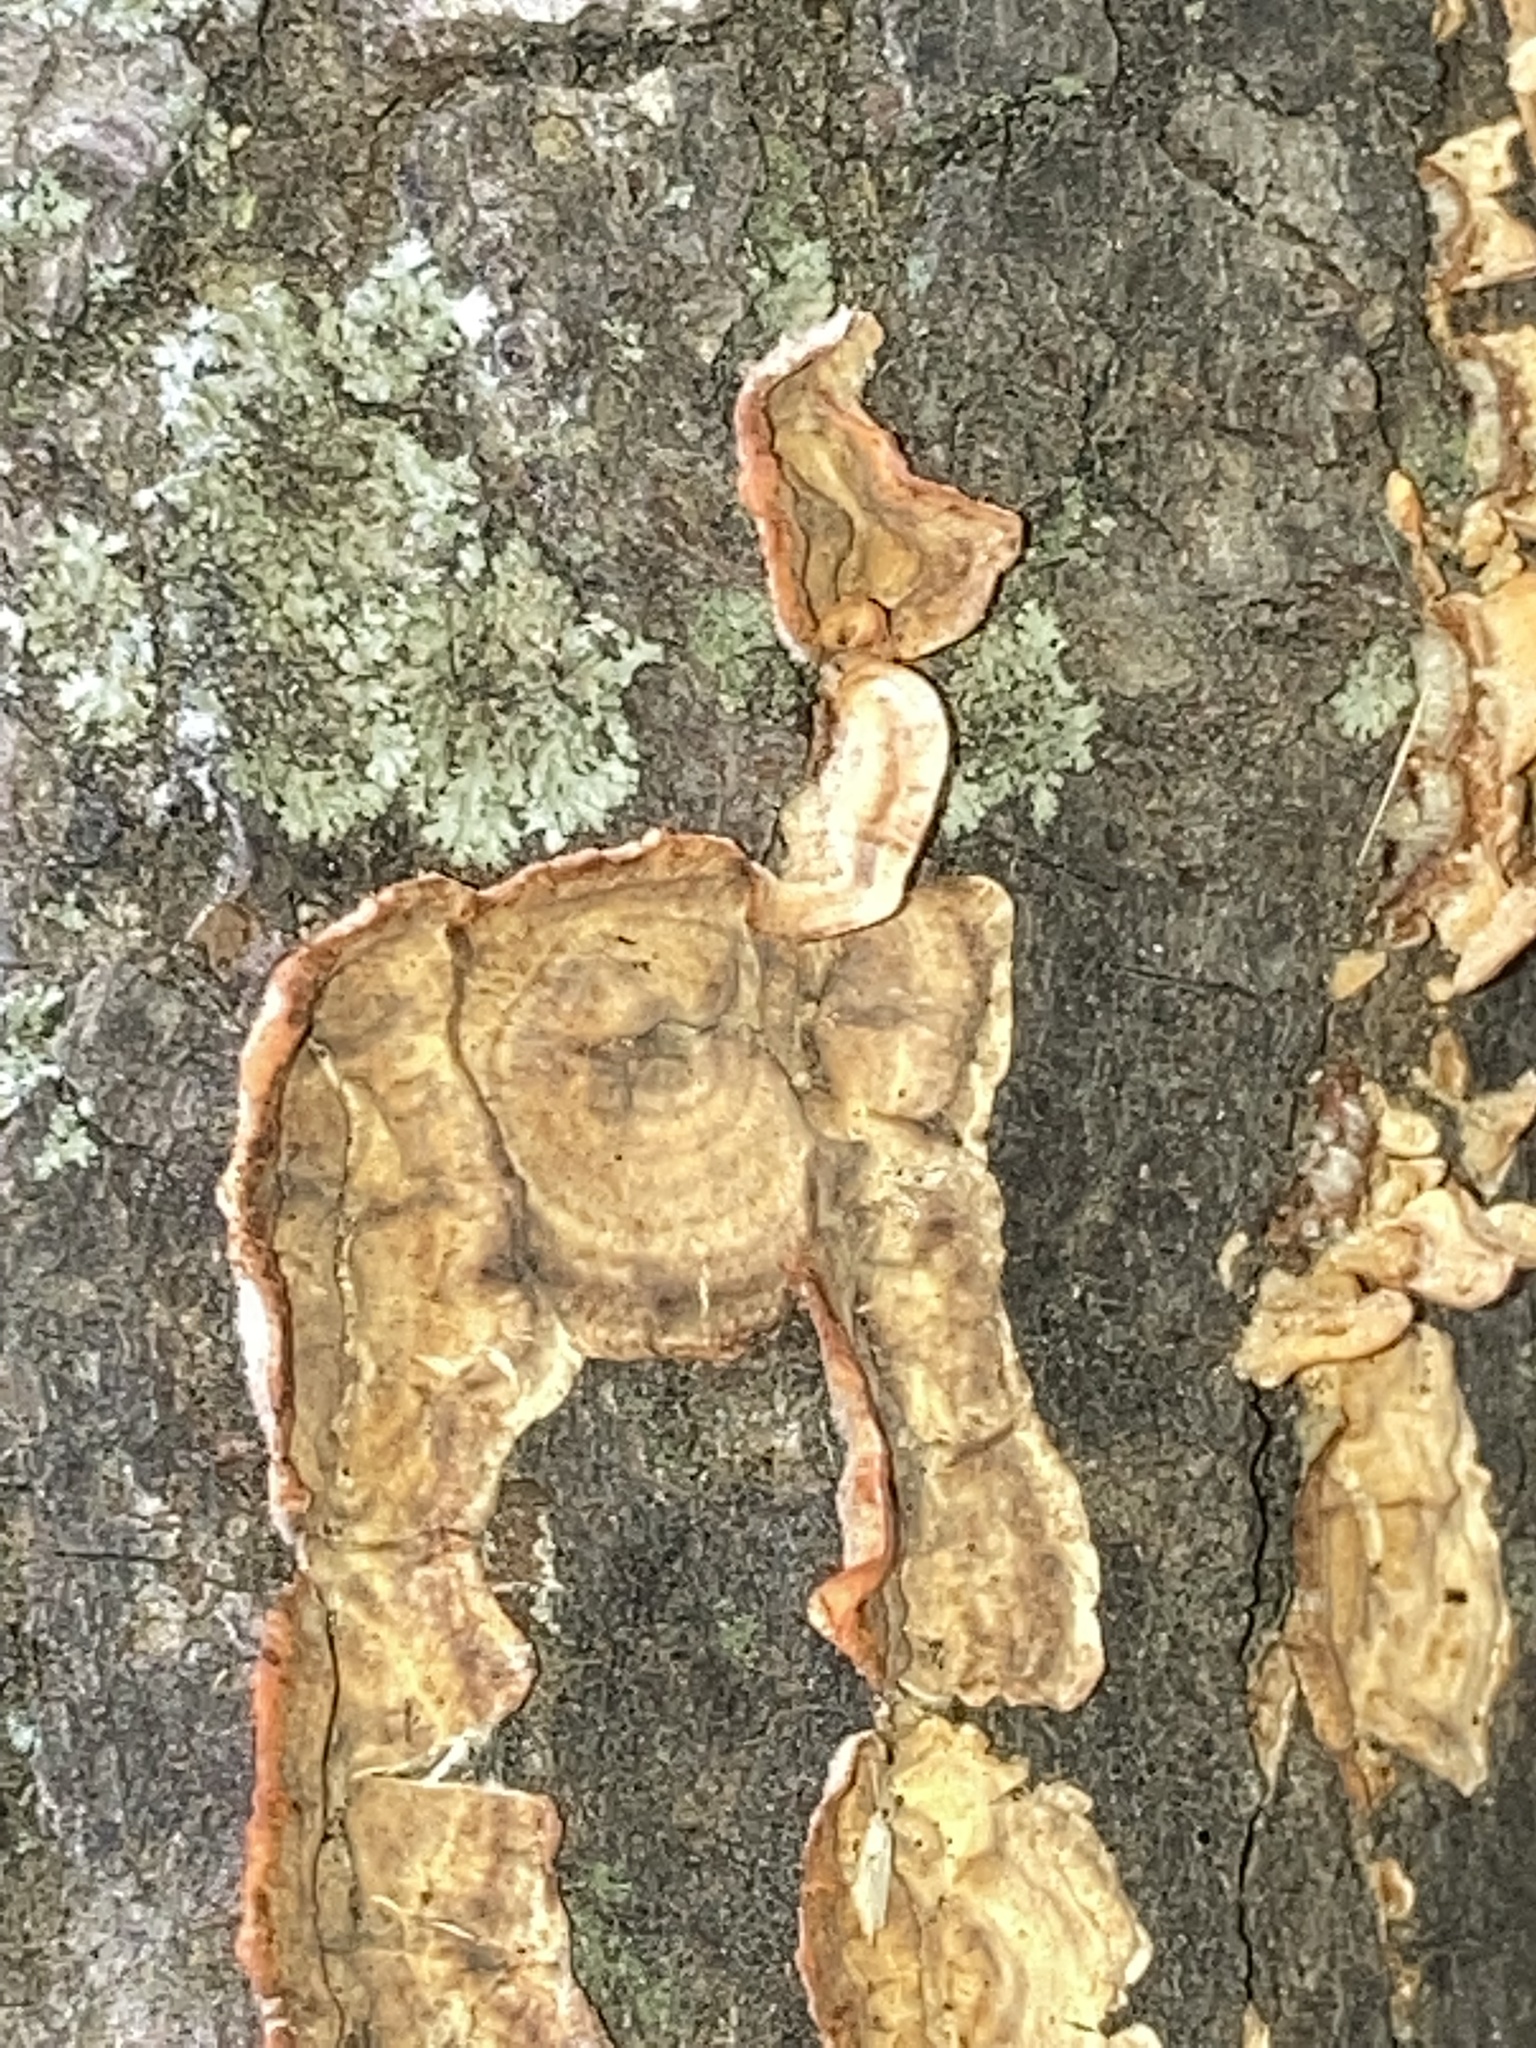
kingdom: Fungi
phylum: Basidiomycota
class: Agaricomycetes
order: Russulales
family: Stereaceae
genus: Stereum
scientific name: Stereum complicatum
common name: Crowded parchment
